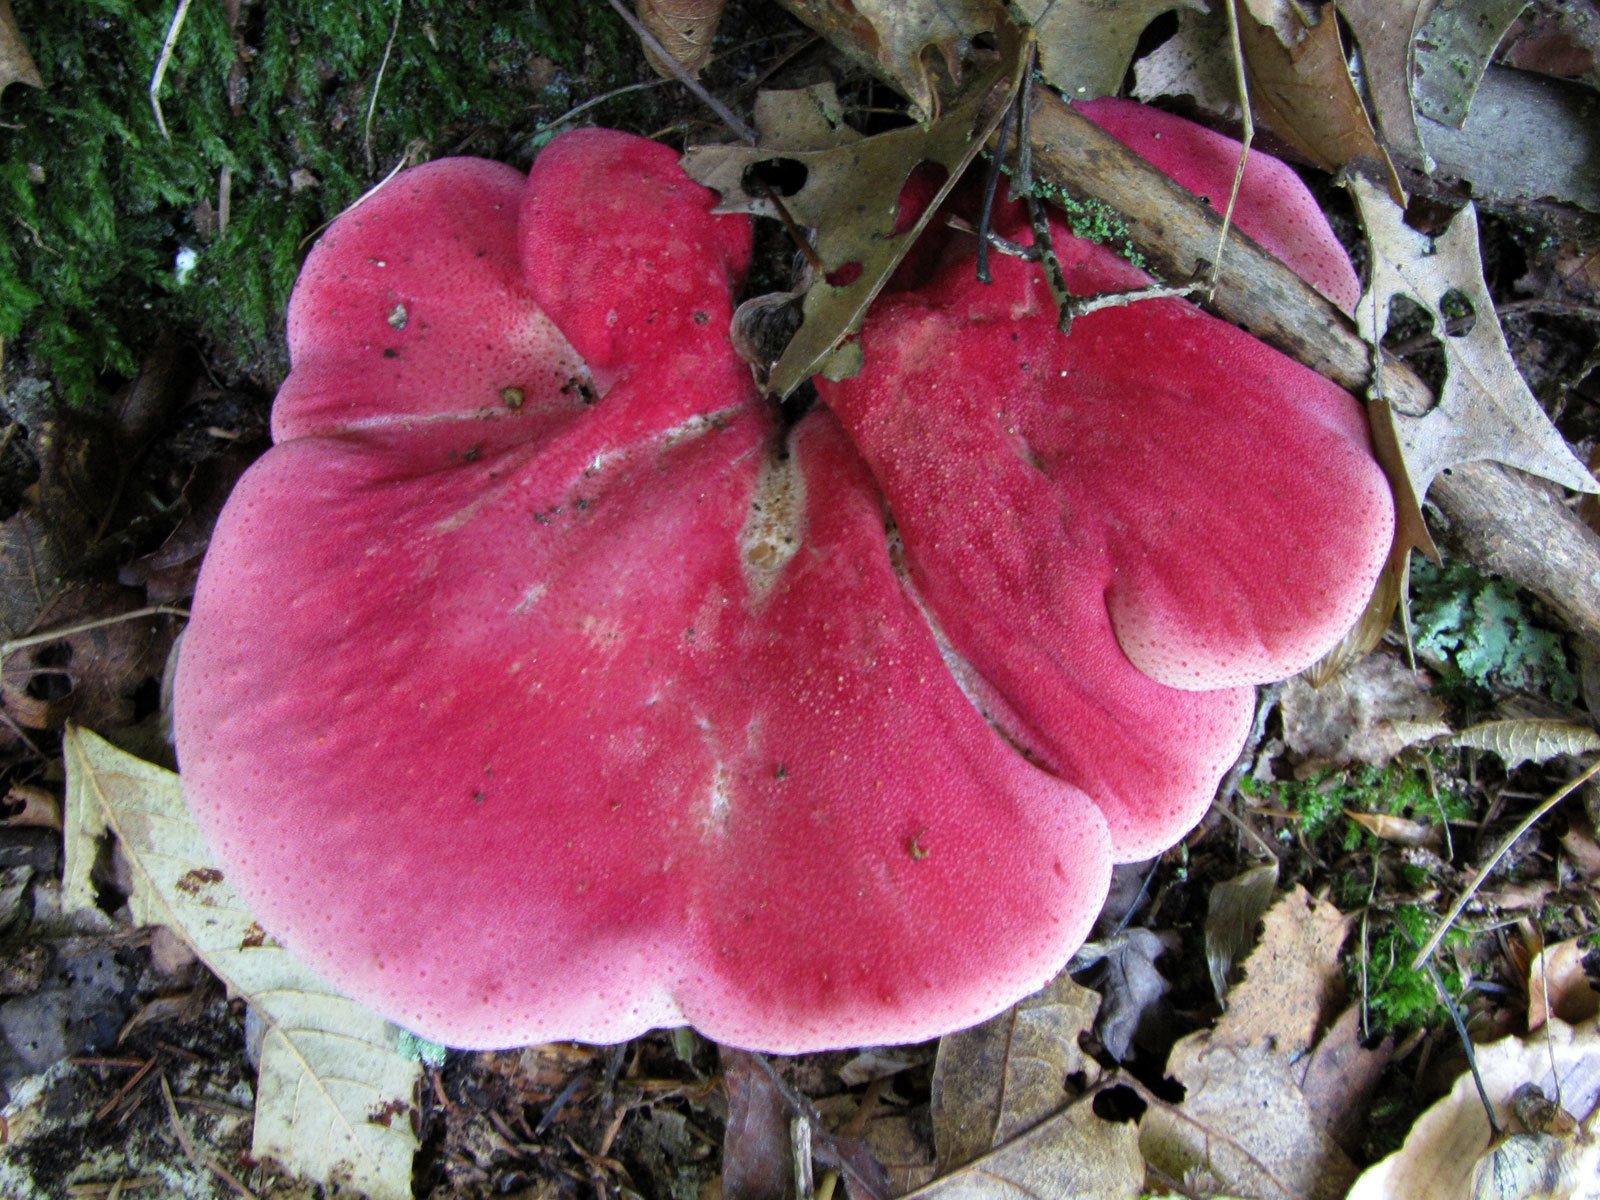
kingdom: Fungi
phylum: Basidiomycota
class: Agaricomycetes
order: Agaricales
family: Fistulinaceae
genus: Fistulina
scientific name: Fistulina hepatica
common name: Beef-steak fungus
